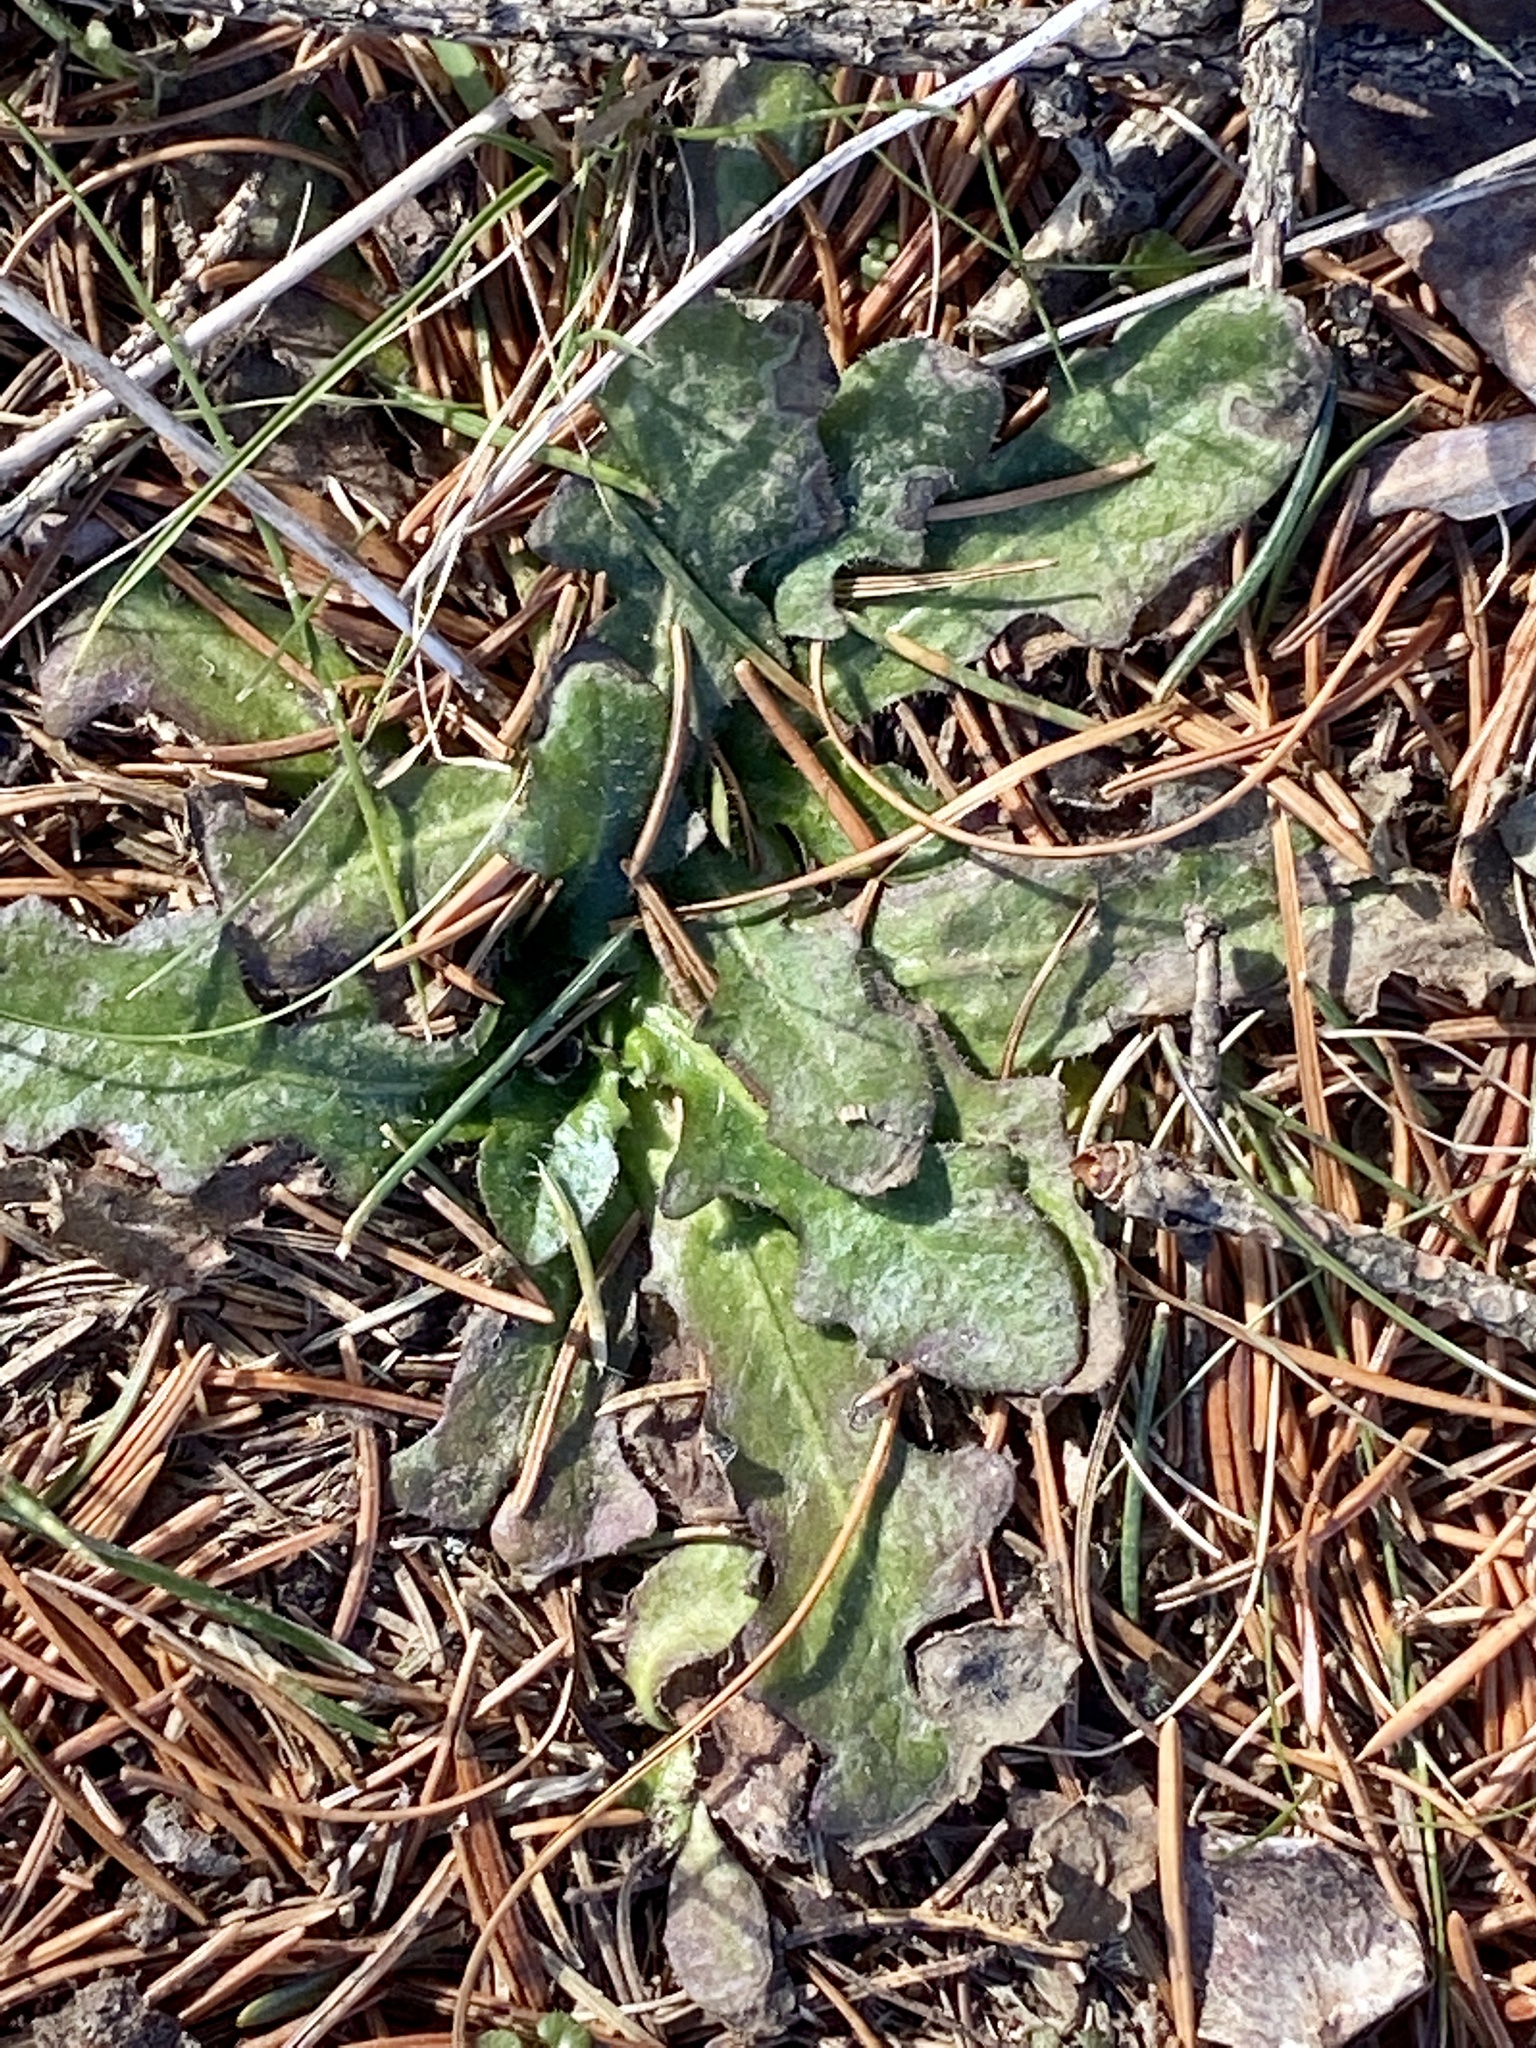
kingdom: Plantae
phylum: Tracheophyta
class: Magnoliopsida
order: Asterales
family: Asteraceae
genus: Hypochaeris
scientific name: Hypochaeris radicata
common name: Flatweed
